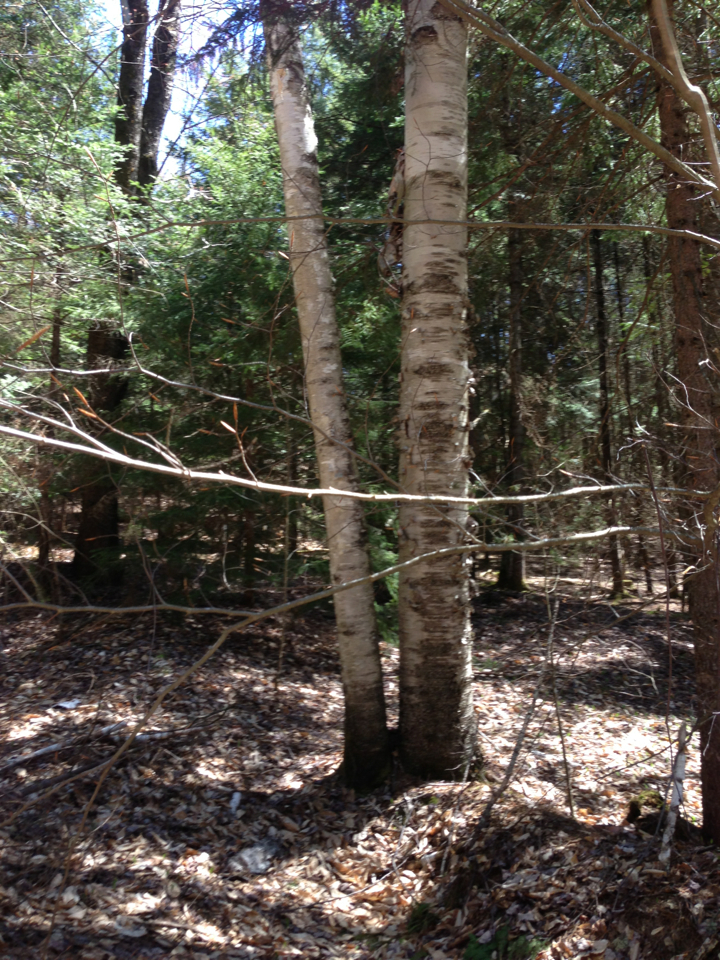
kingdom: Plantae
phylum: Tracheophyta
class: Magnoliopsida
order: Fagales
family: Betulaceae
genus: Betula
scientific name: Betula papyrifera
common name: Paper birch
